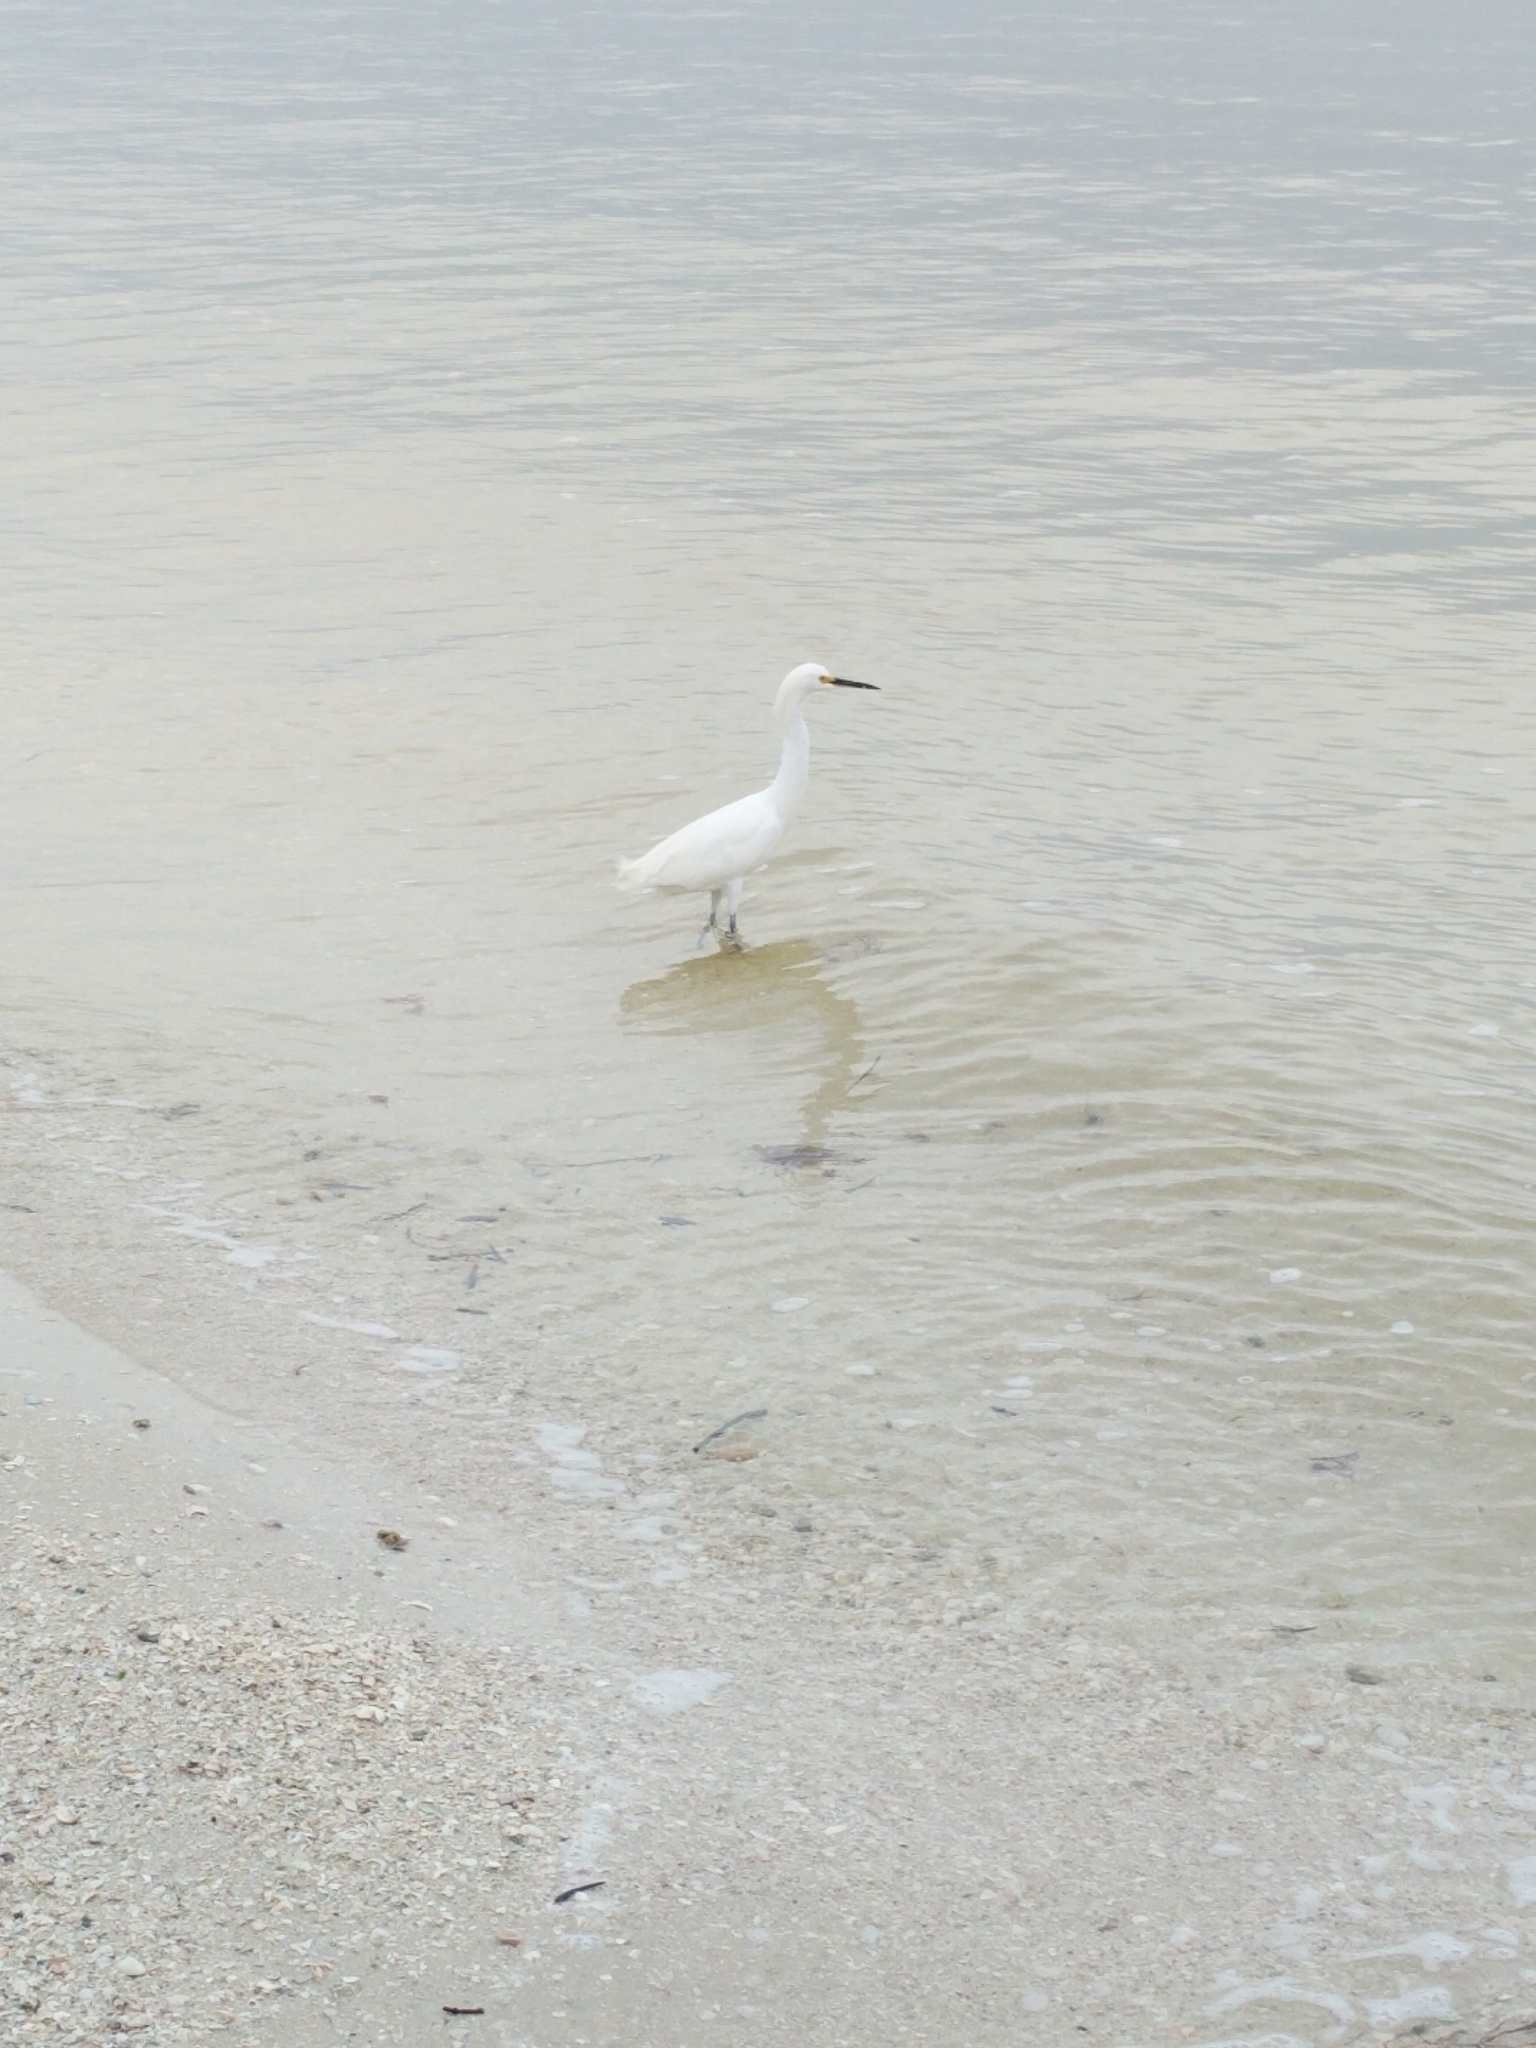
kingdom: Animalia
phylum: Chordata
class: Aves
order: Pelecaniformes
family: Ardeidae
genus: Egretta
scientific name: Egretta thula
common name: Snowy egret
